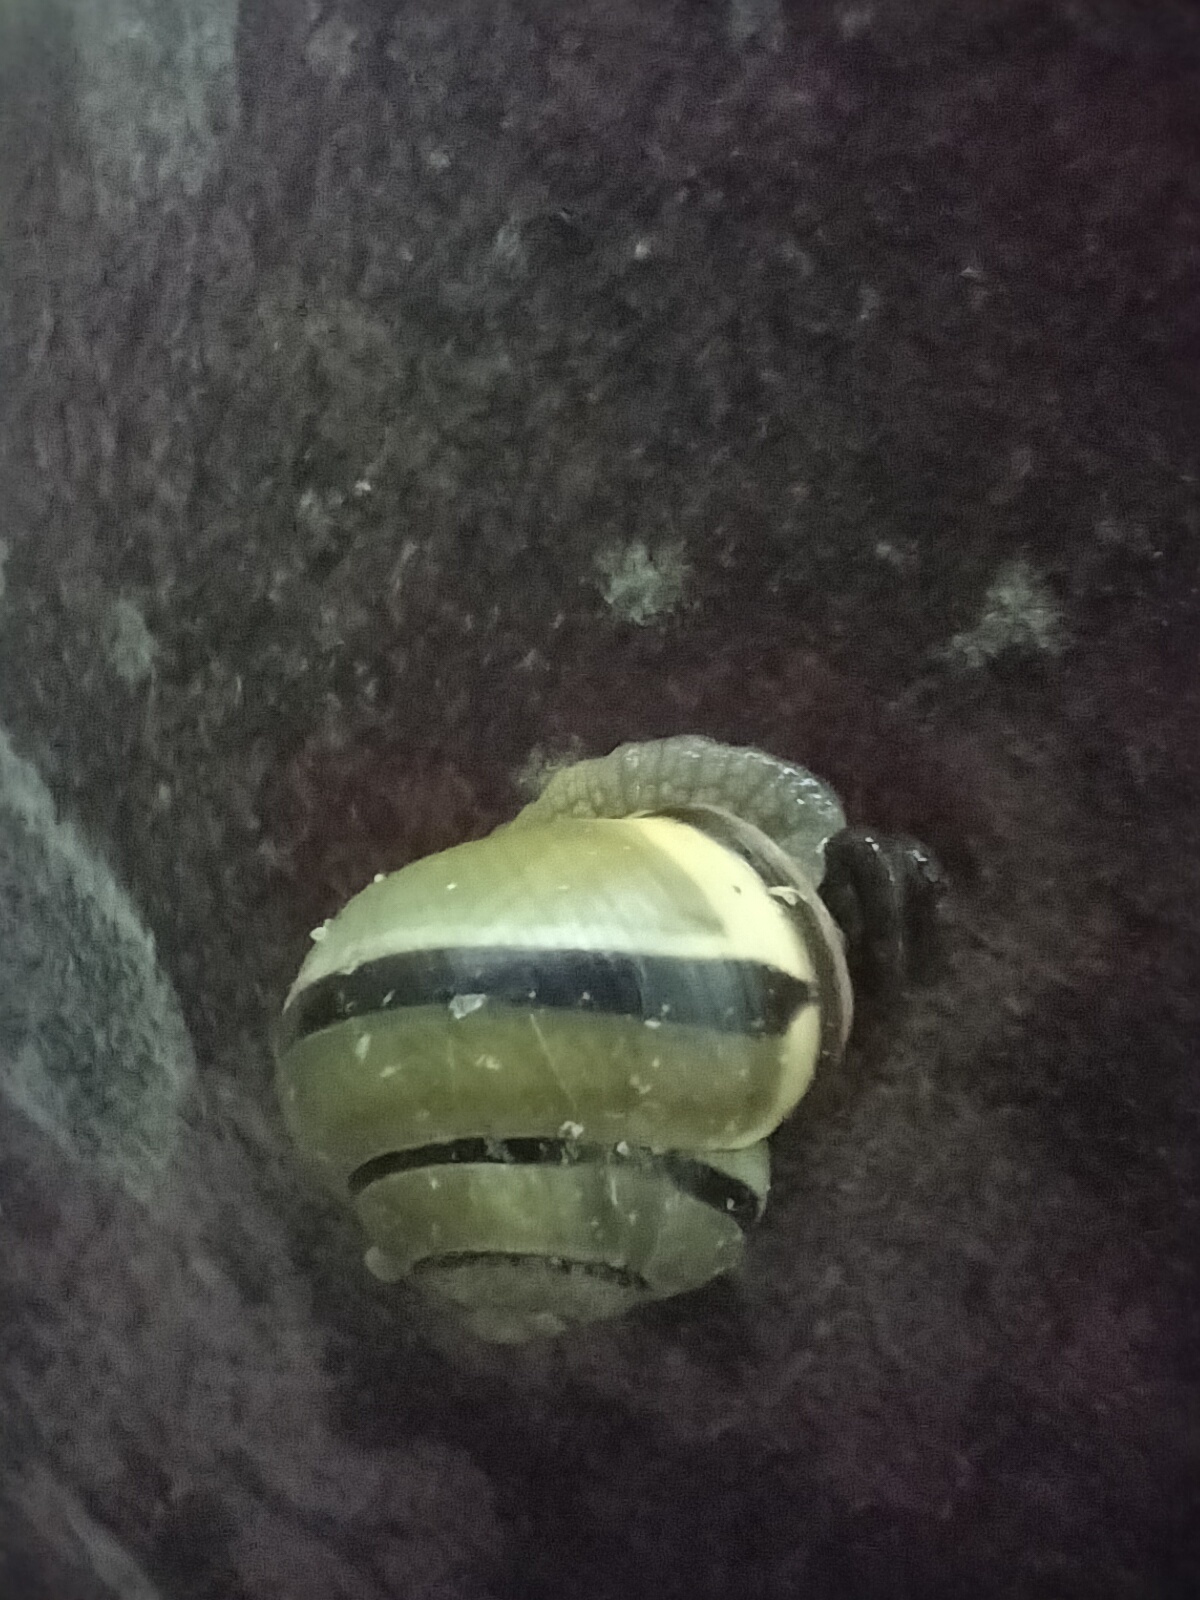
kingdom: Animalia
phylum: Mollusca
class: Gastropoda
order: Stylommatophora
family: Helicidae
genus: Cepaea
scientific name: Cepaea nemoralis
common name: Grovesnail
